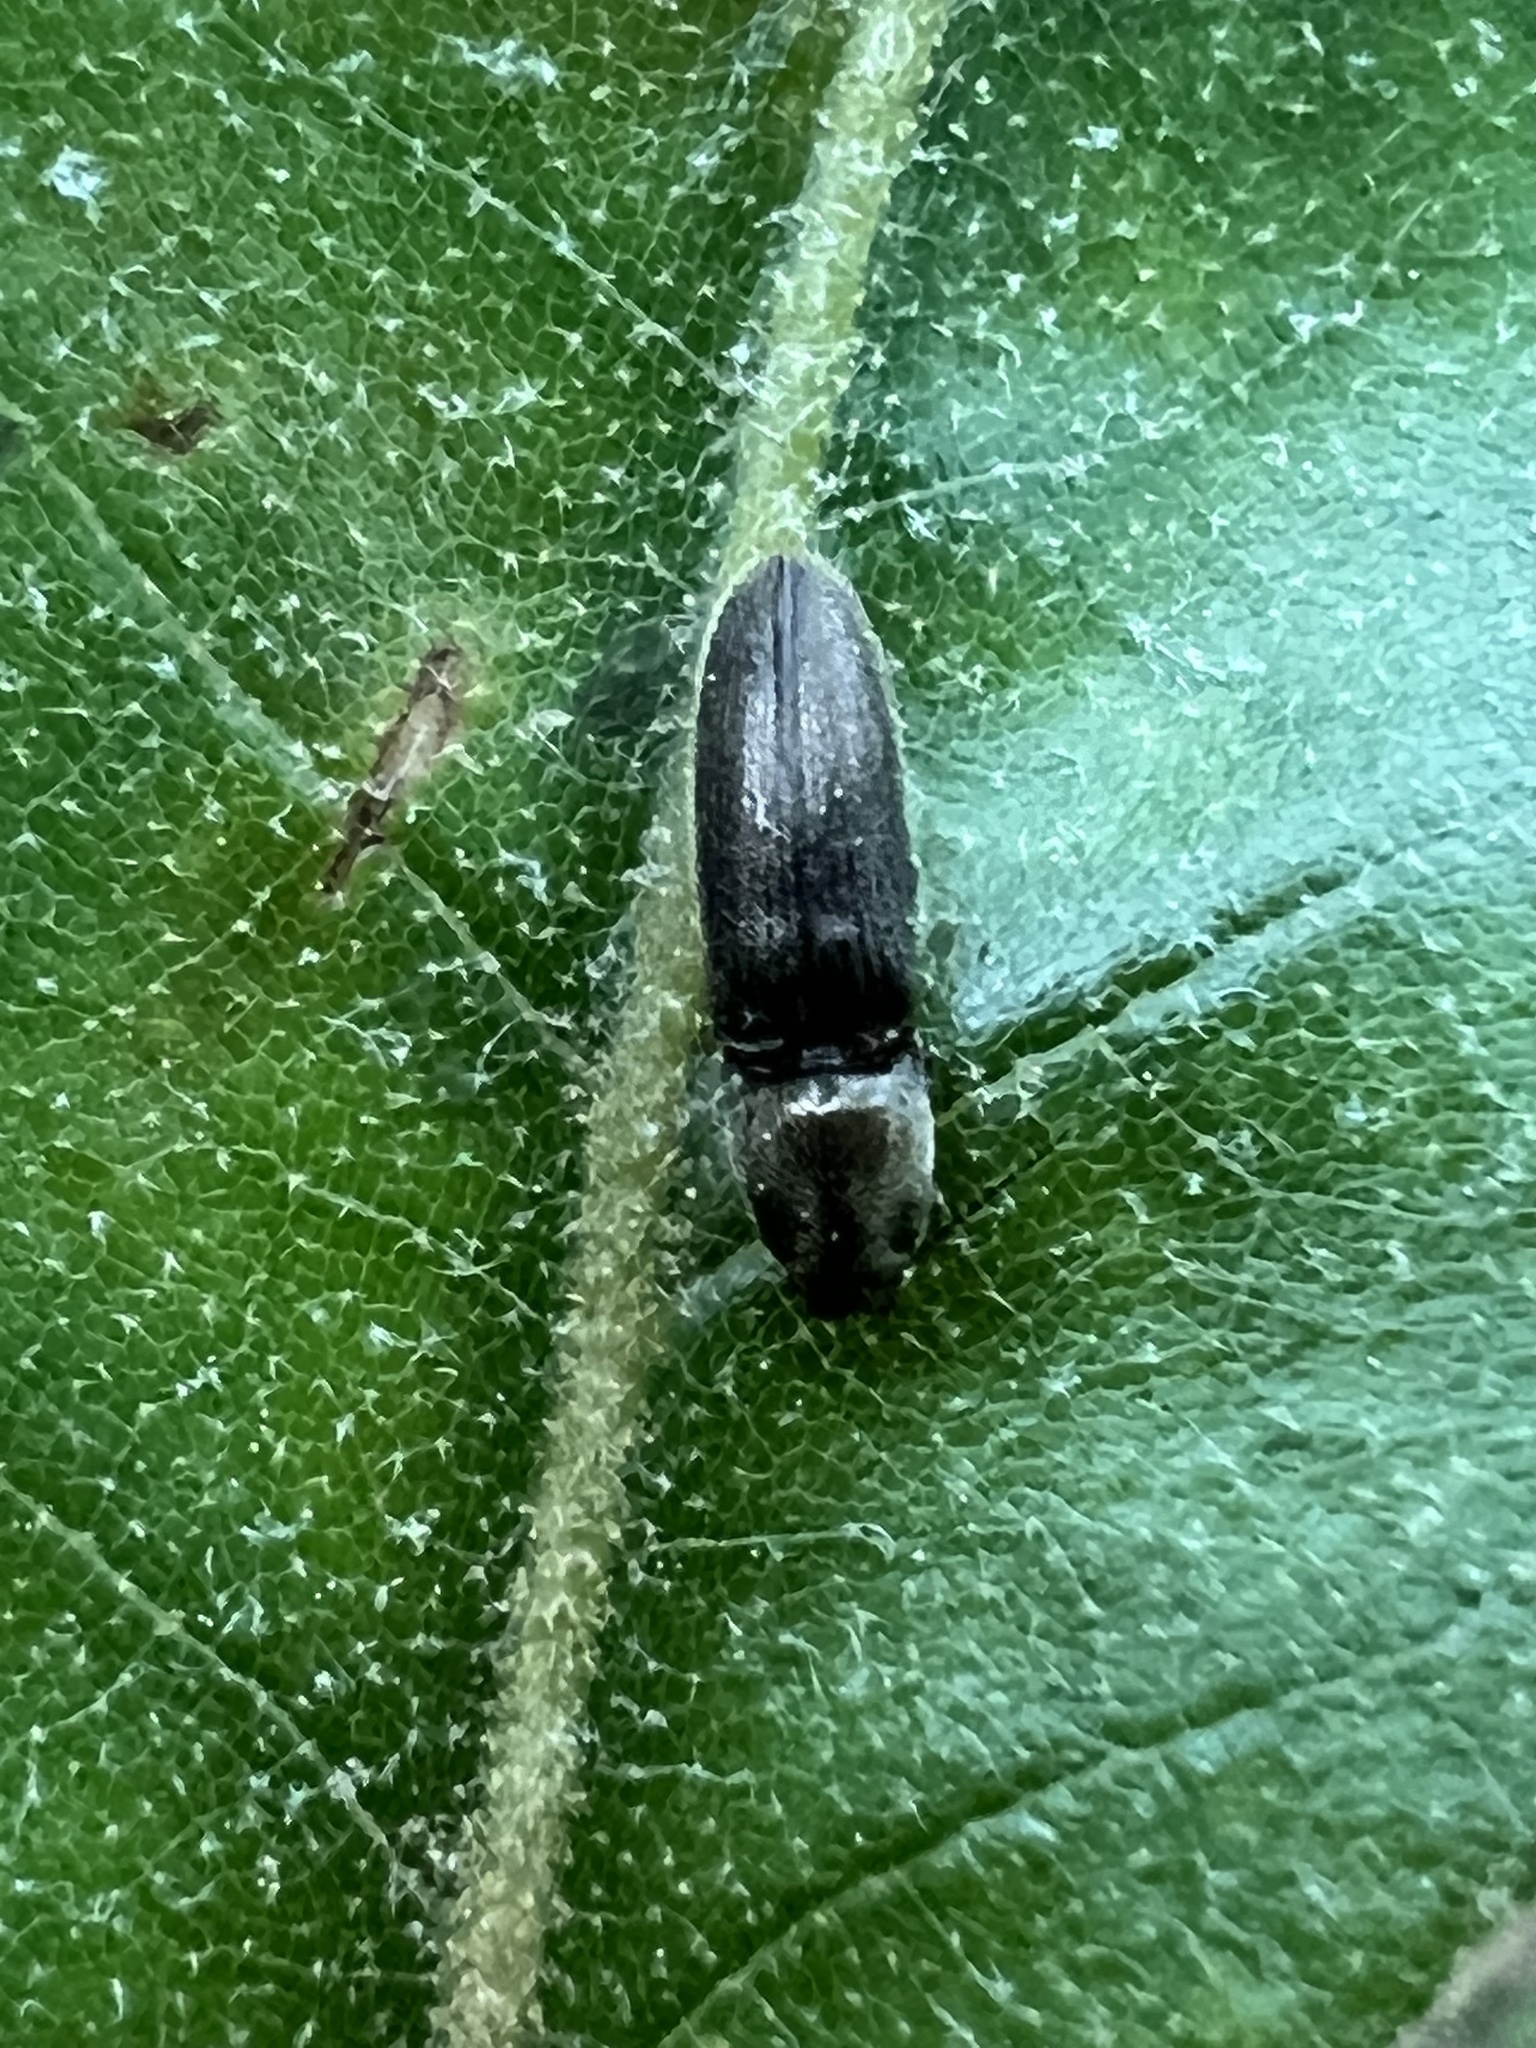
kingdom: Animalia
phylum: Arthropoda
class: Insecta
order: Coleoptera
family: Elateridae
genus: Limonius
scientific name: Limonius quercinus
